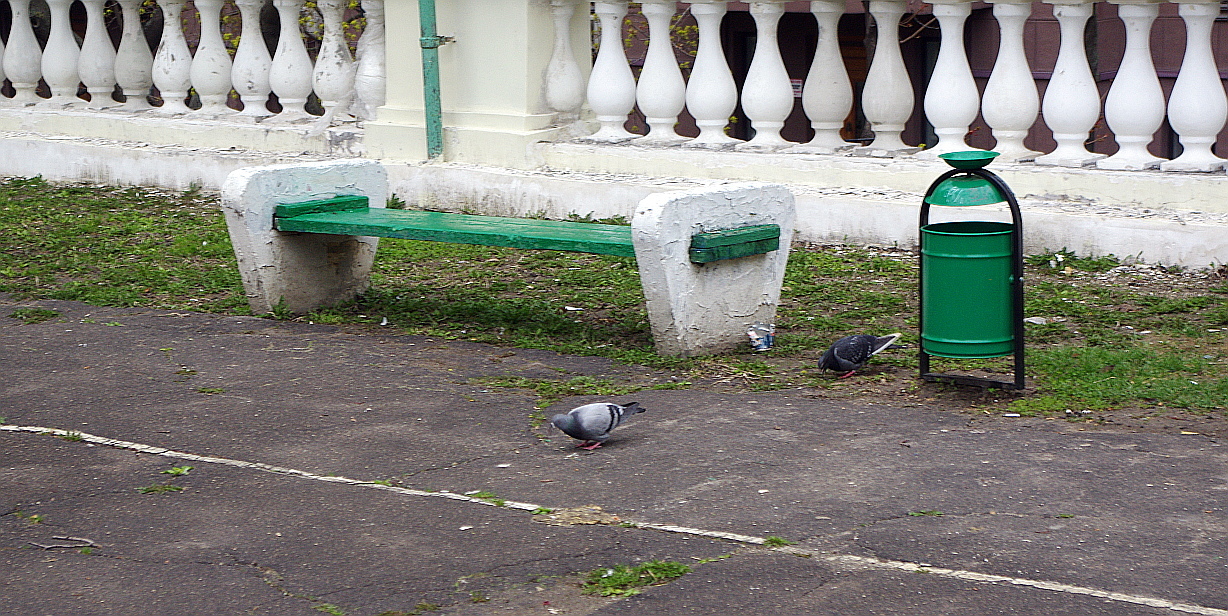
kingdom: Animalia
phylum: Chordata
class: Aves
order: Columbiformes
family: Columbidae
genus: Columba
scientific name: Columba livia
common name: Rock pigeon
